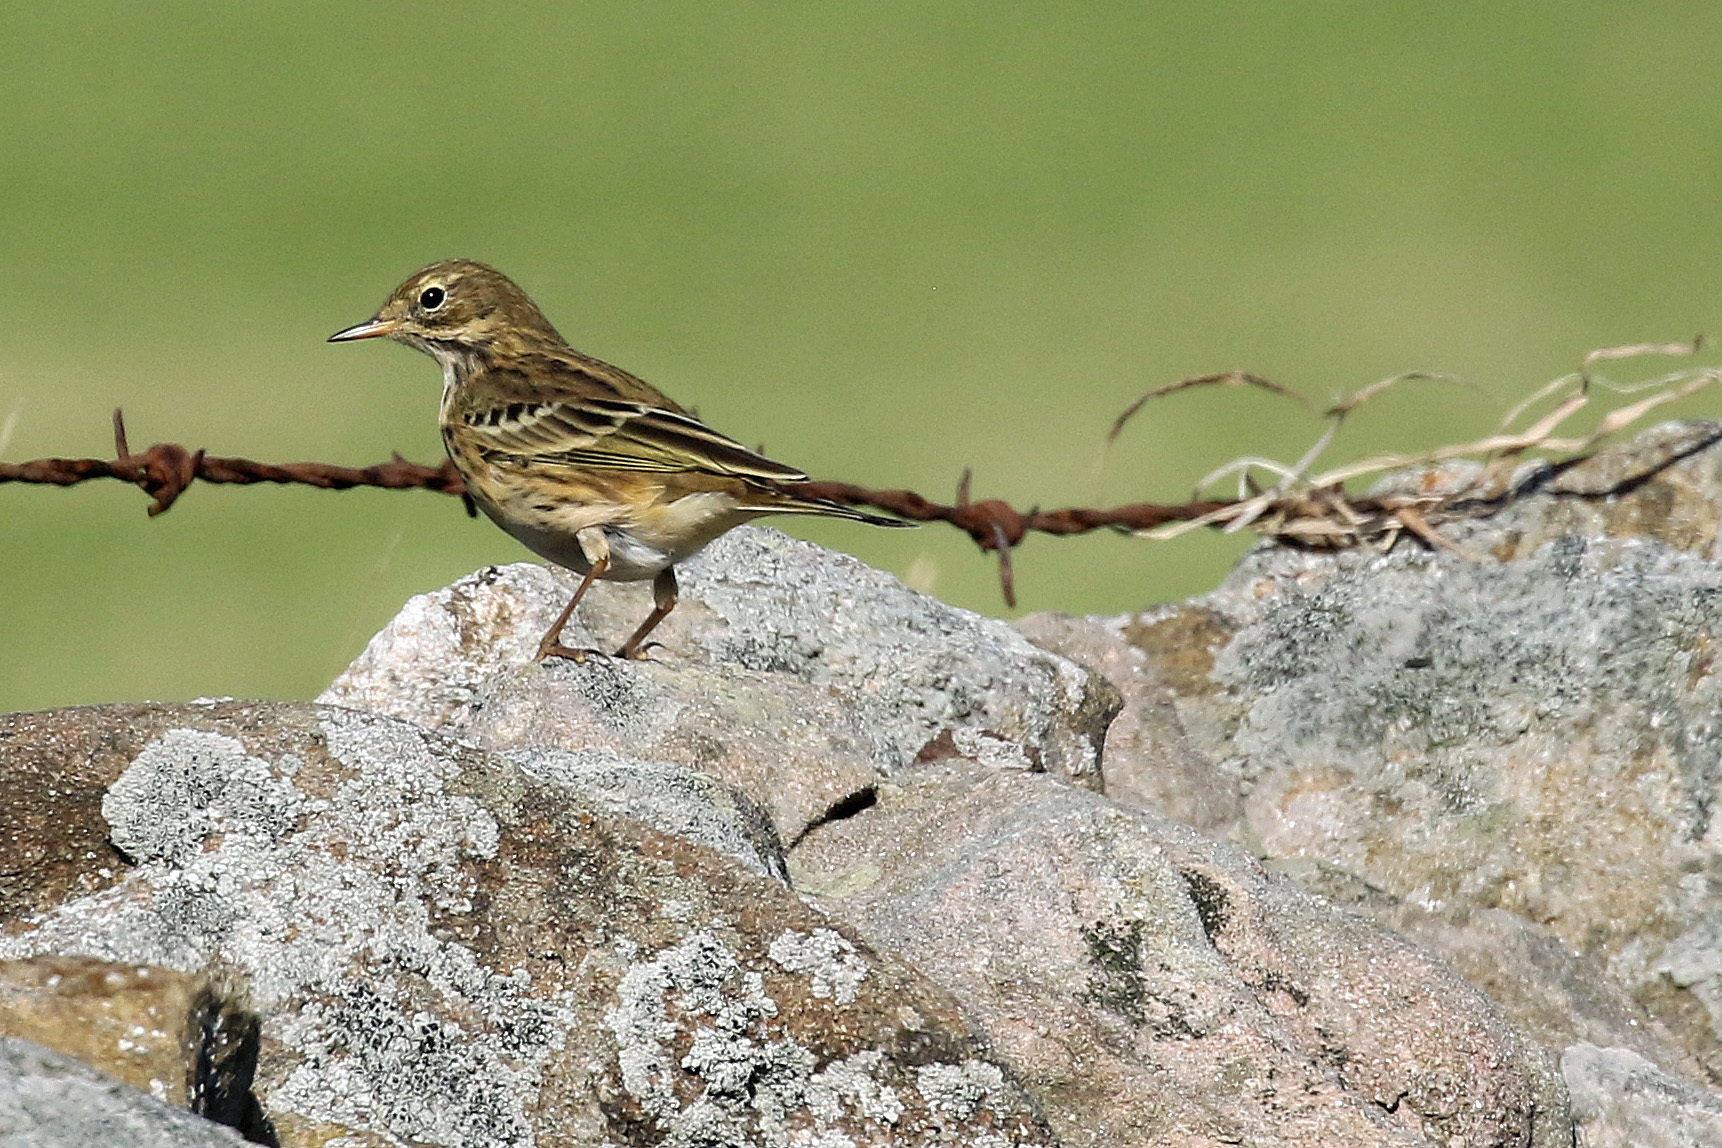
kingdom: Animalia
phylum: Chordata
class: Aves
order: Passeriformes
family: Motacillidae
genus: Anthus
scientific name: Anthus pratensis
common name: Meadow pipit
